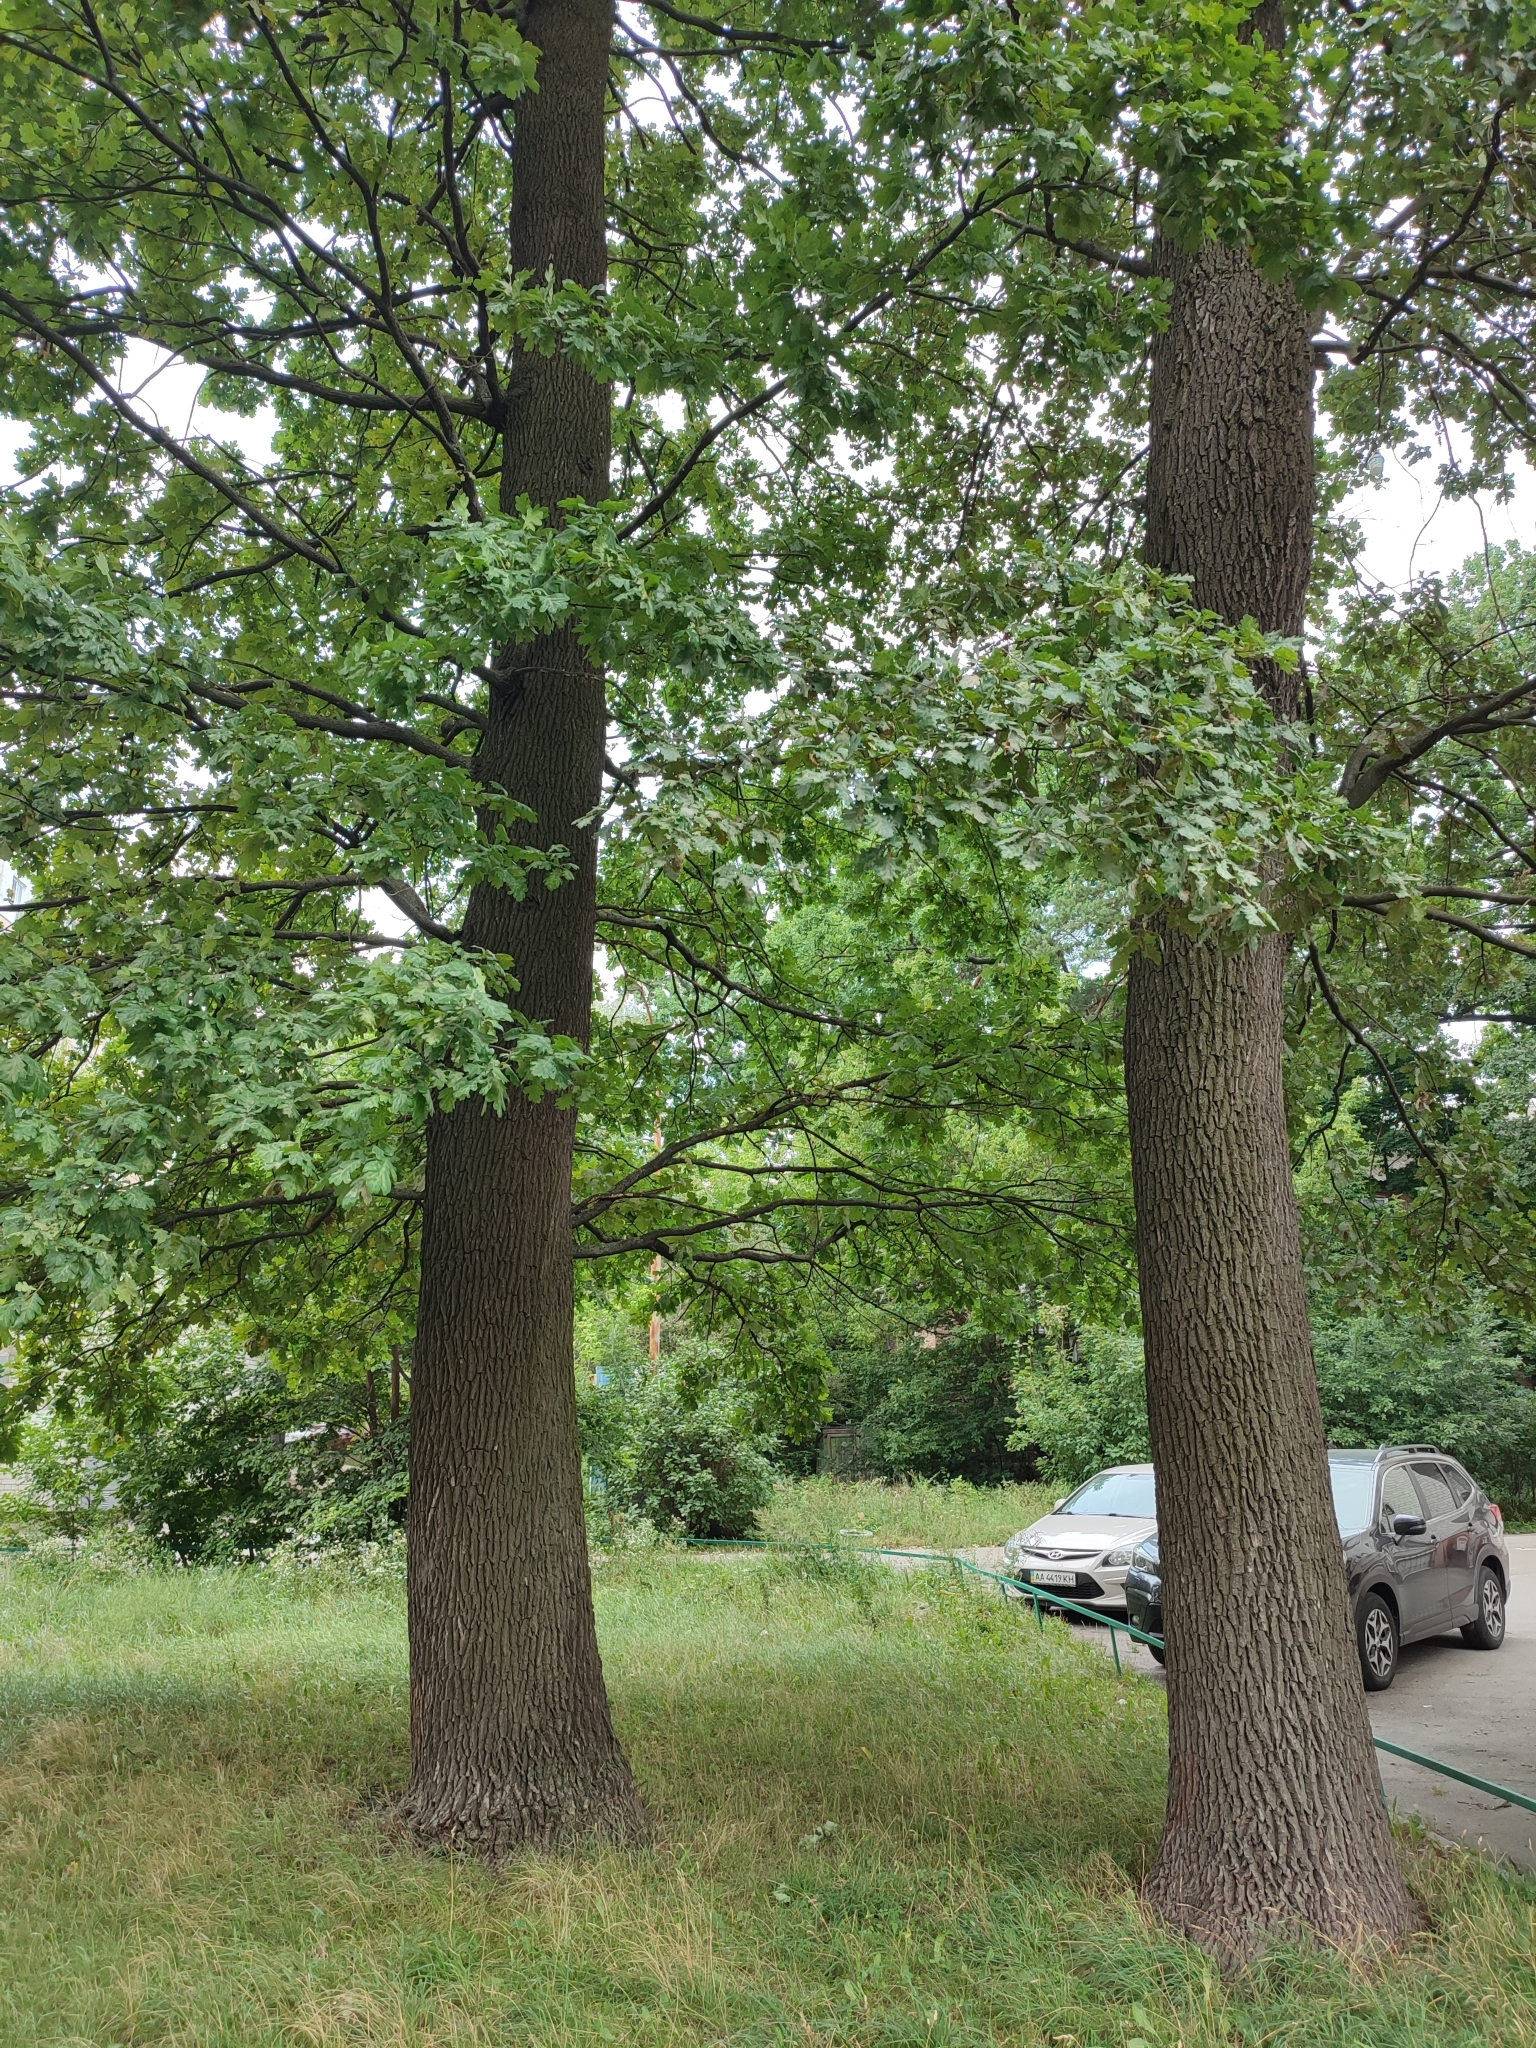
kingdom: Plantae
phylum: Tracheophyta
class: Magnoliopsida
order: Fagales
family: Fagaceae
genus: Quercus
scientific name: Quercus robur
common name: Pedunculate oak
